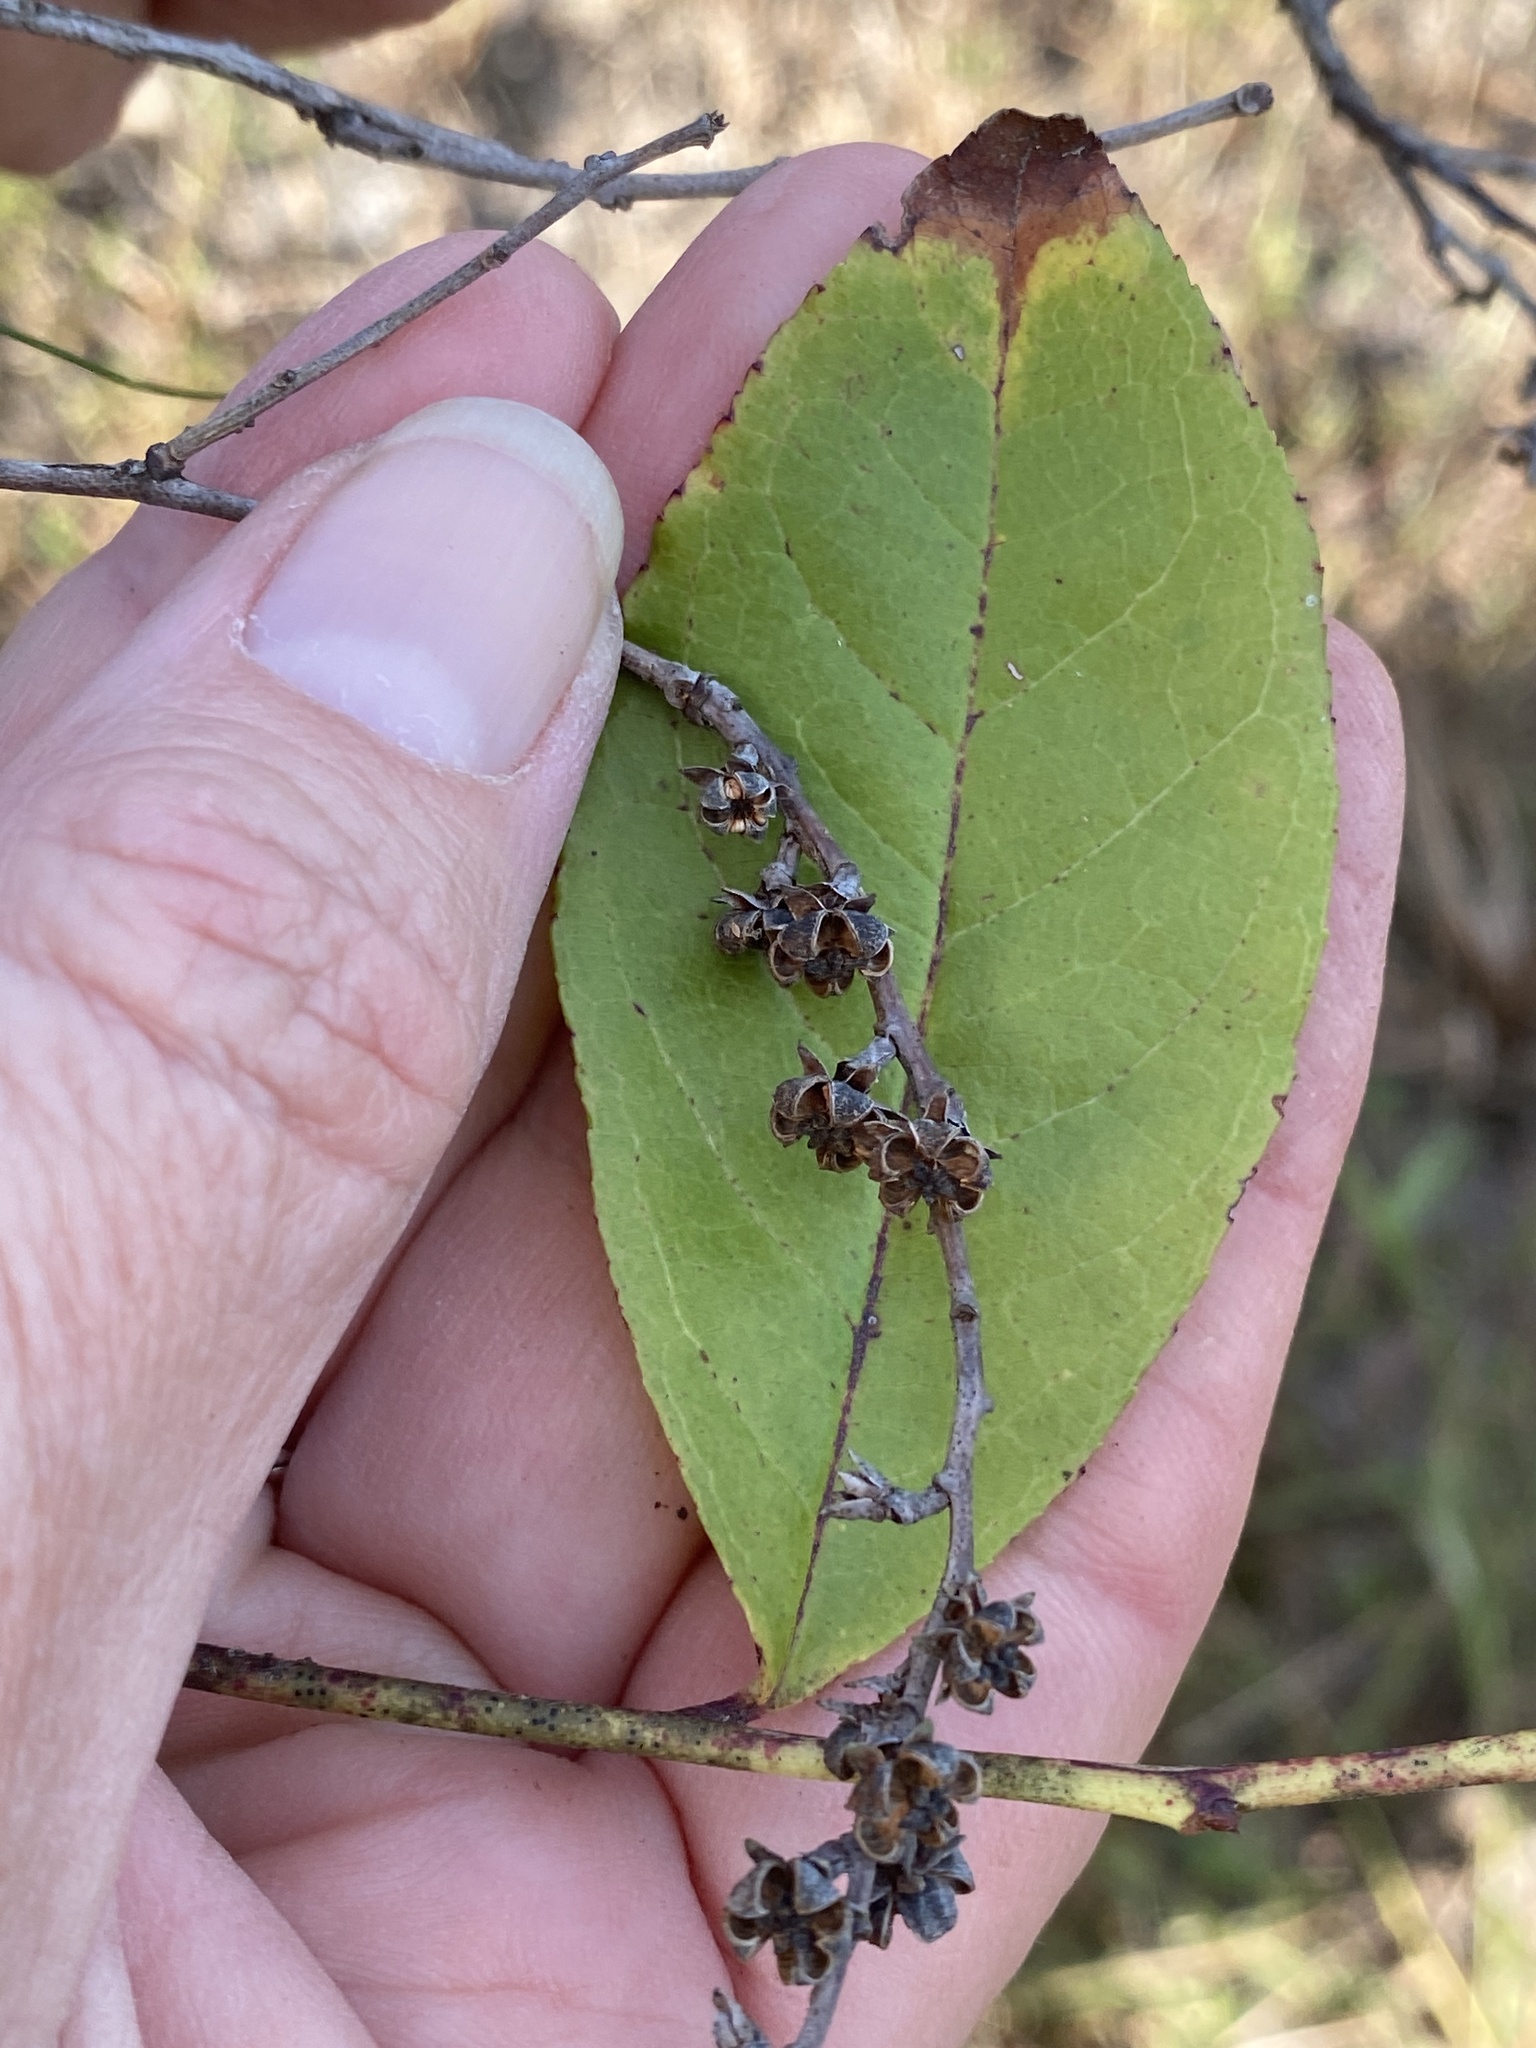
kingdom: Plantae
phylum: Tracheophyta
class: Magnoliopsida
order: Ericales
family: Ericaceae
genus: Eubotrys
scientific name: Eubotrys racemosa
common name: Fetterbush
